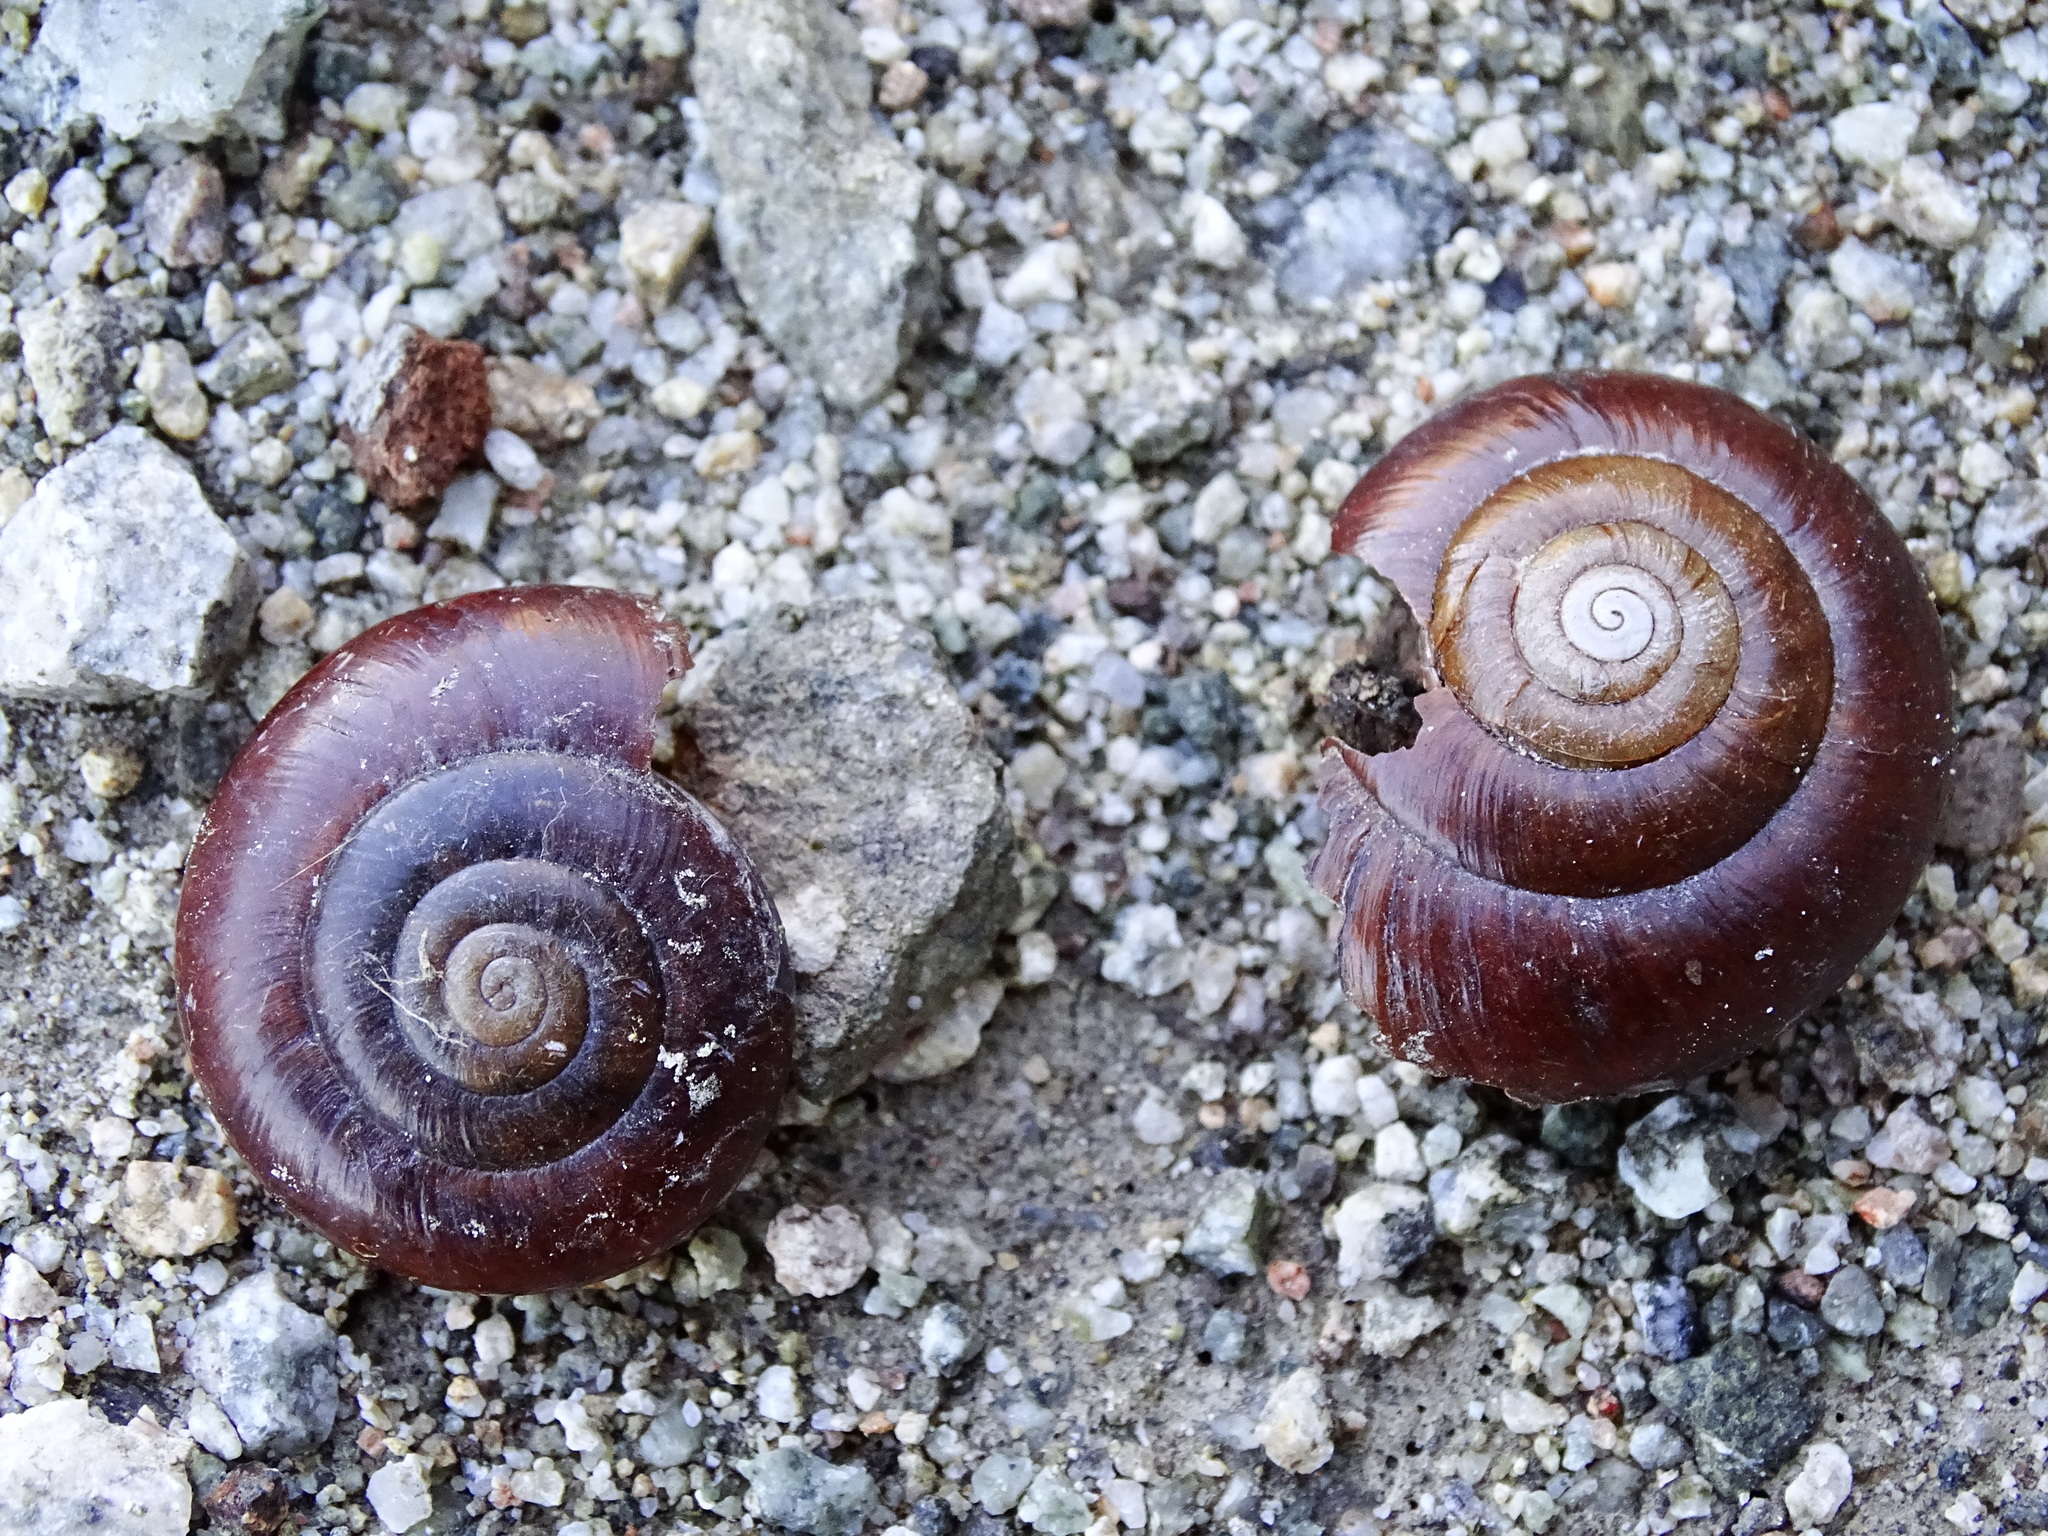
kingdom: Animalia
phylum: Mollusca
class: Gastropoda
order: Stylommatophora
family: Megomphicidae
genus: Glyptostoma
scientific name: Glyptostoma gabrielense
